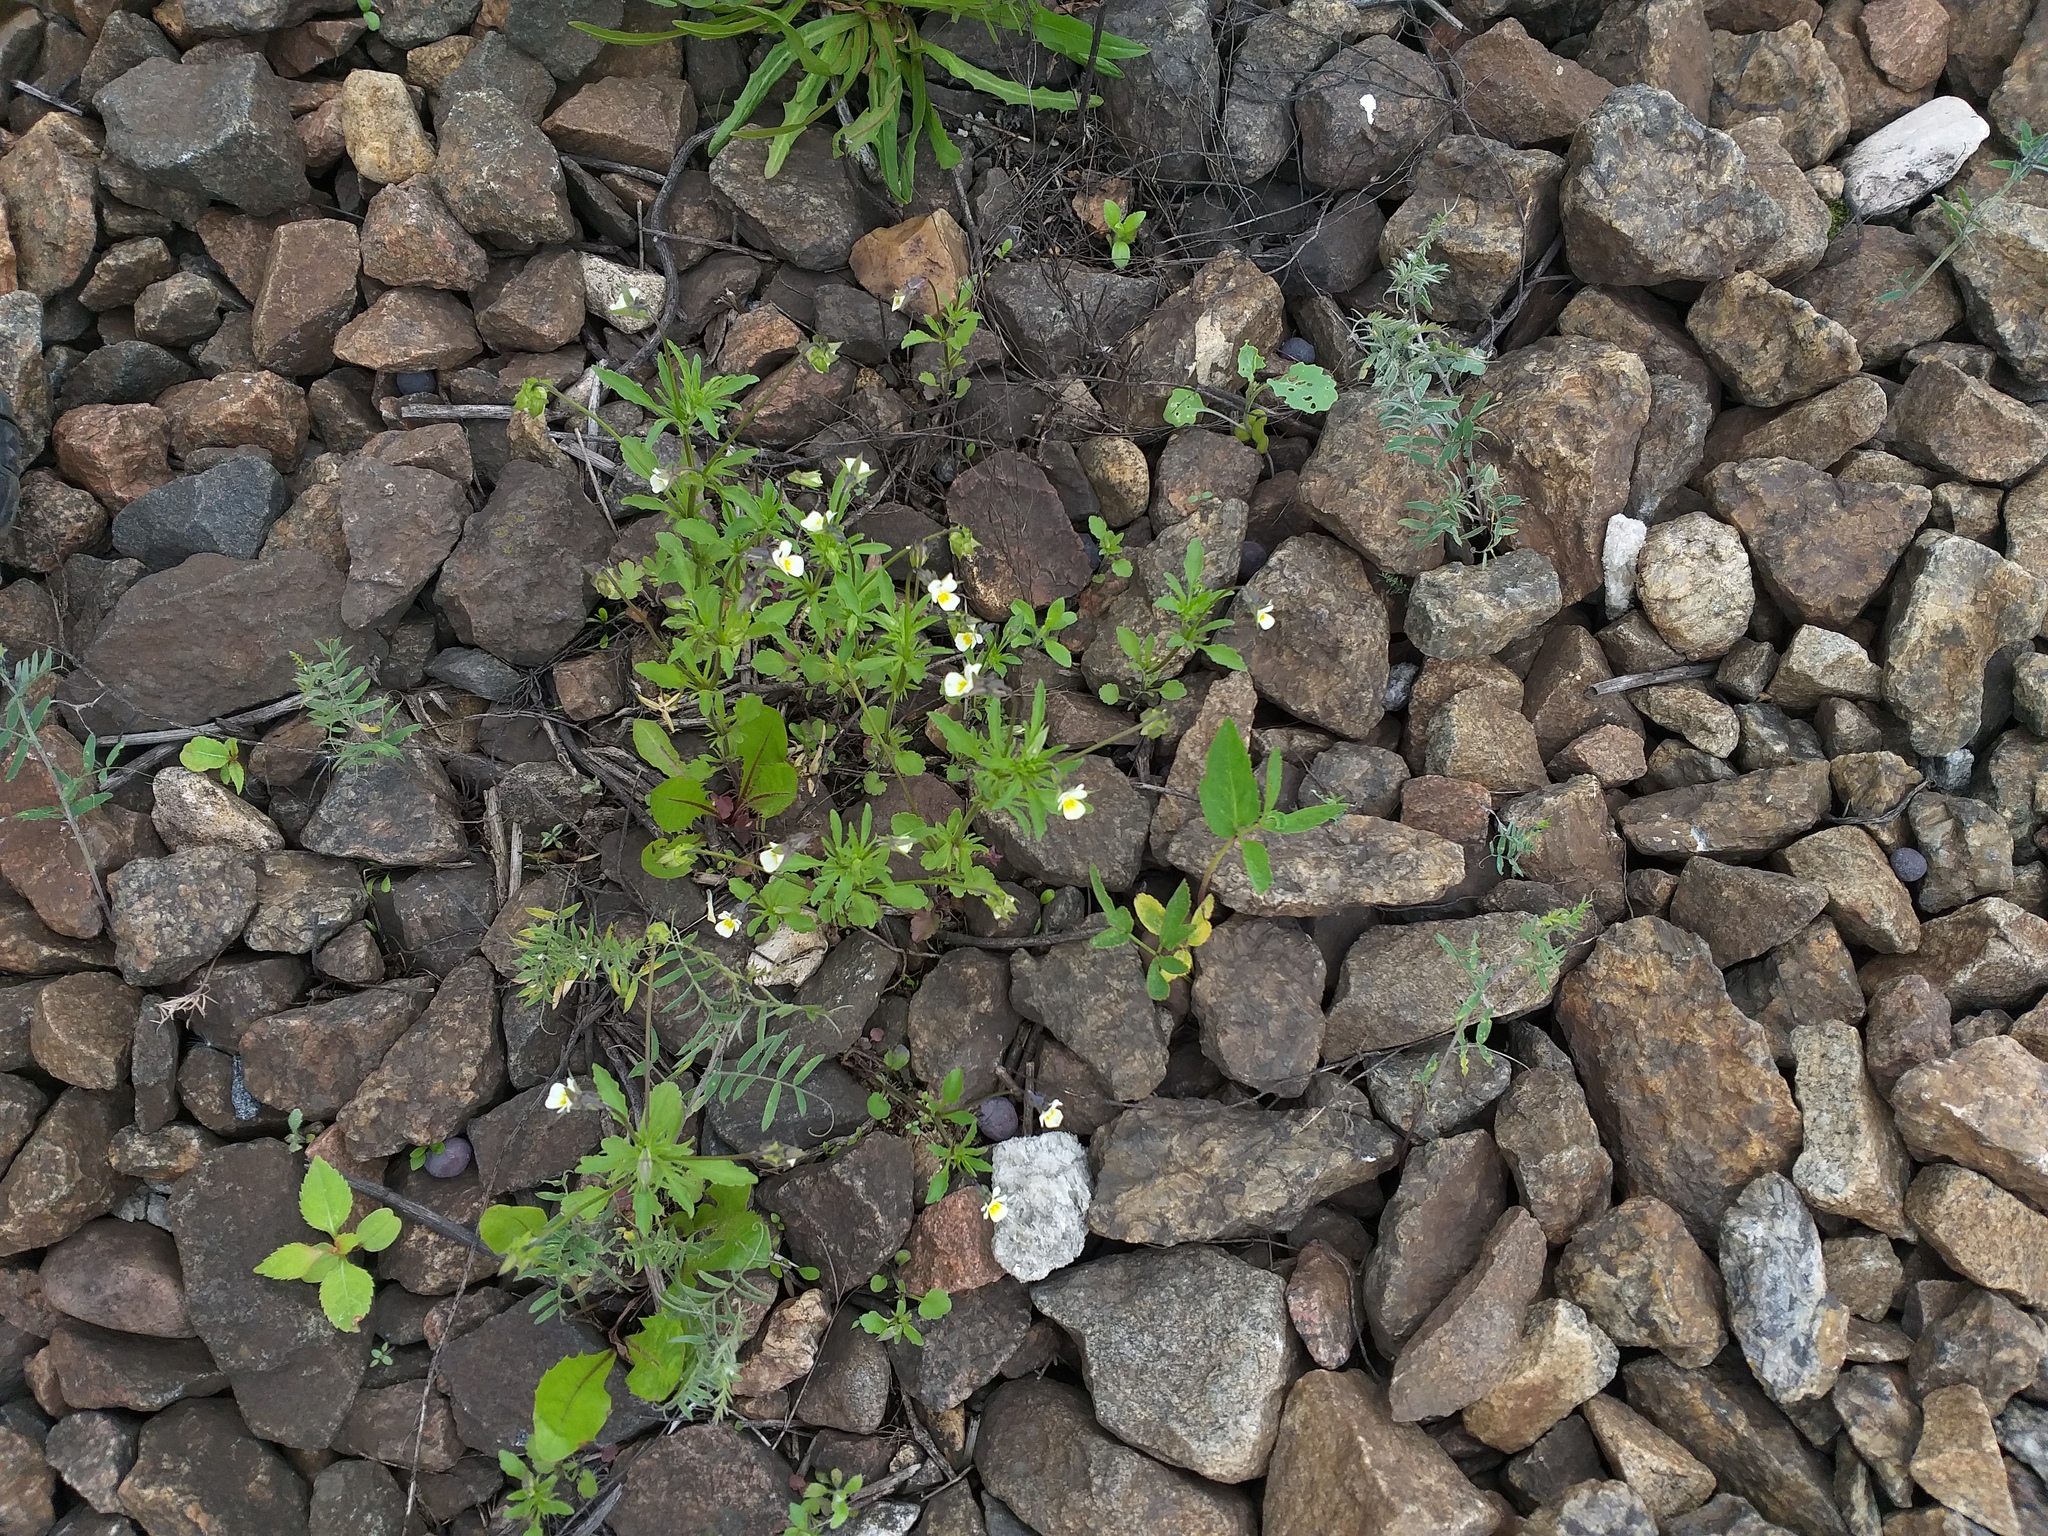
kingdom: Plantae
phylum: Tracheophyta
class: Magnoliopsida
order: Malpighiales
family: Violaceae
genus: Viola
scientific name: Viola arvensis
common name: Field pansy
